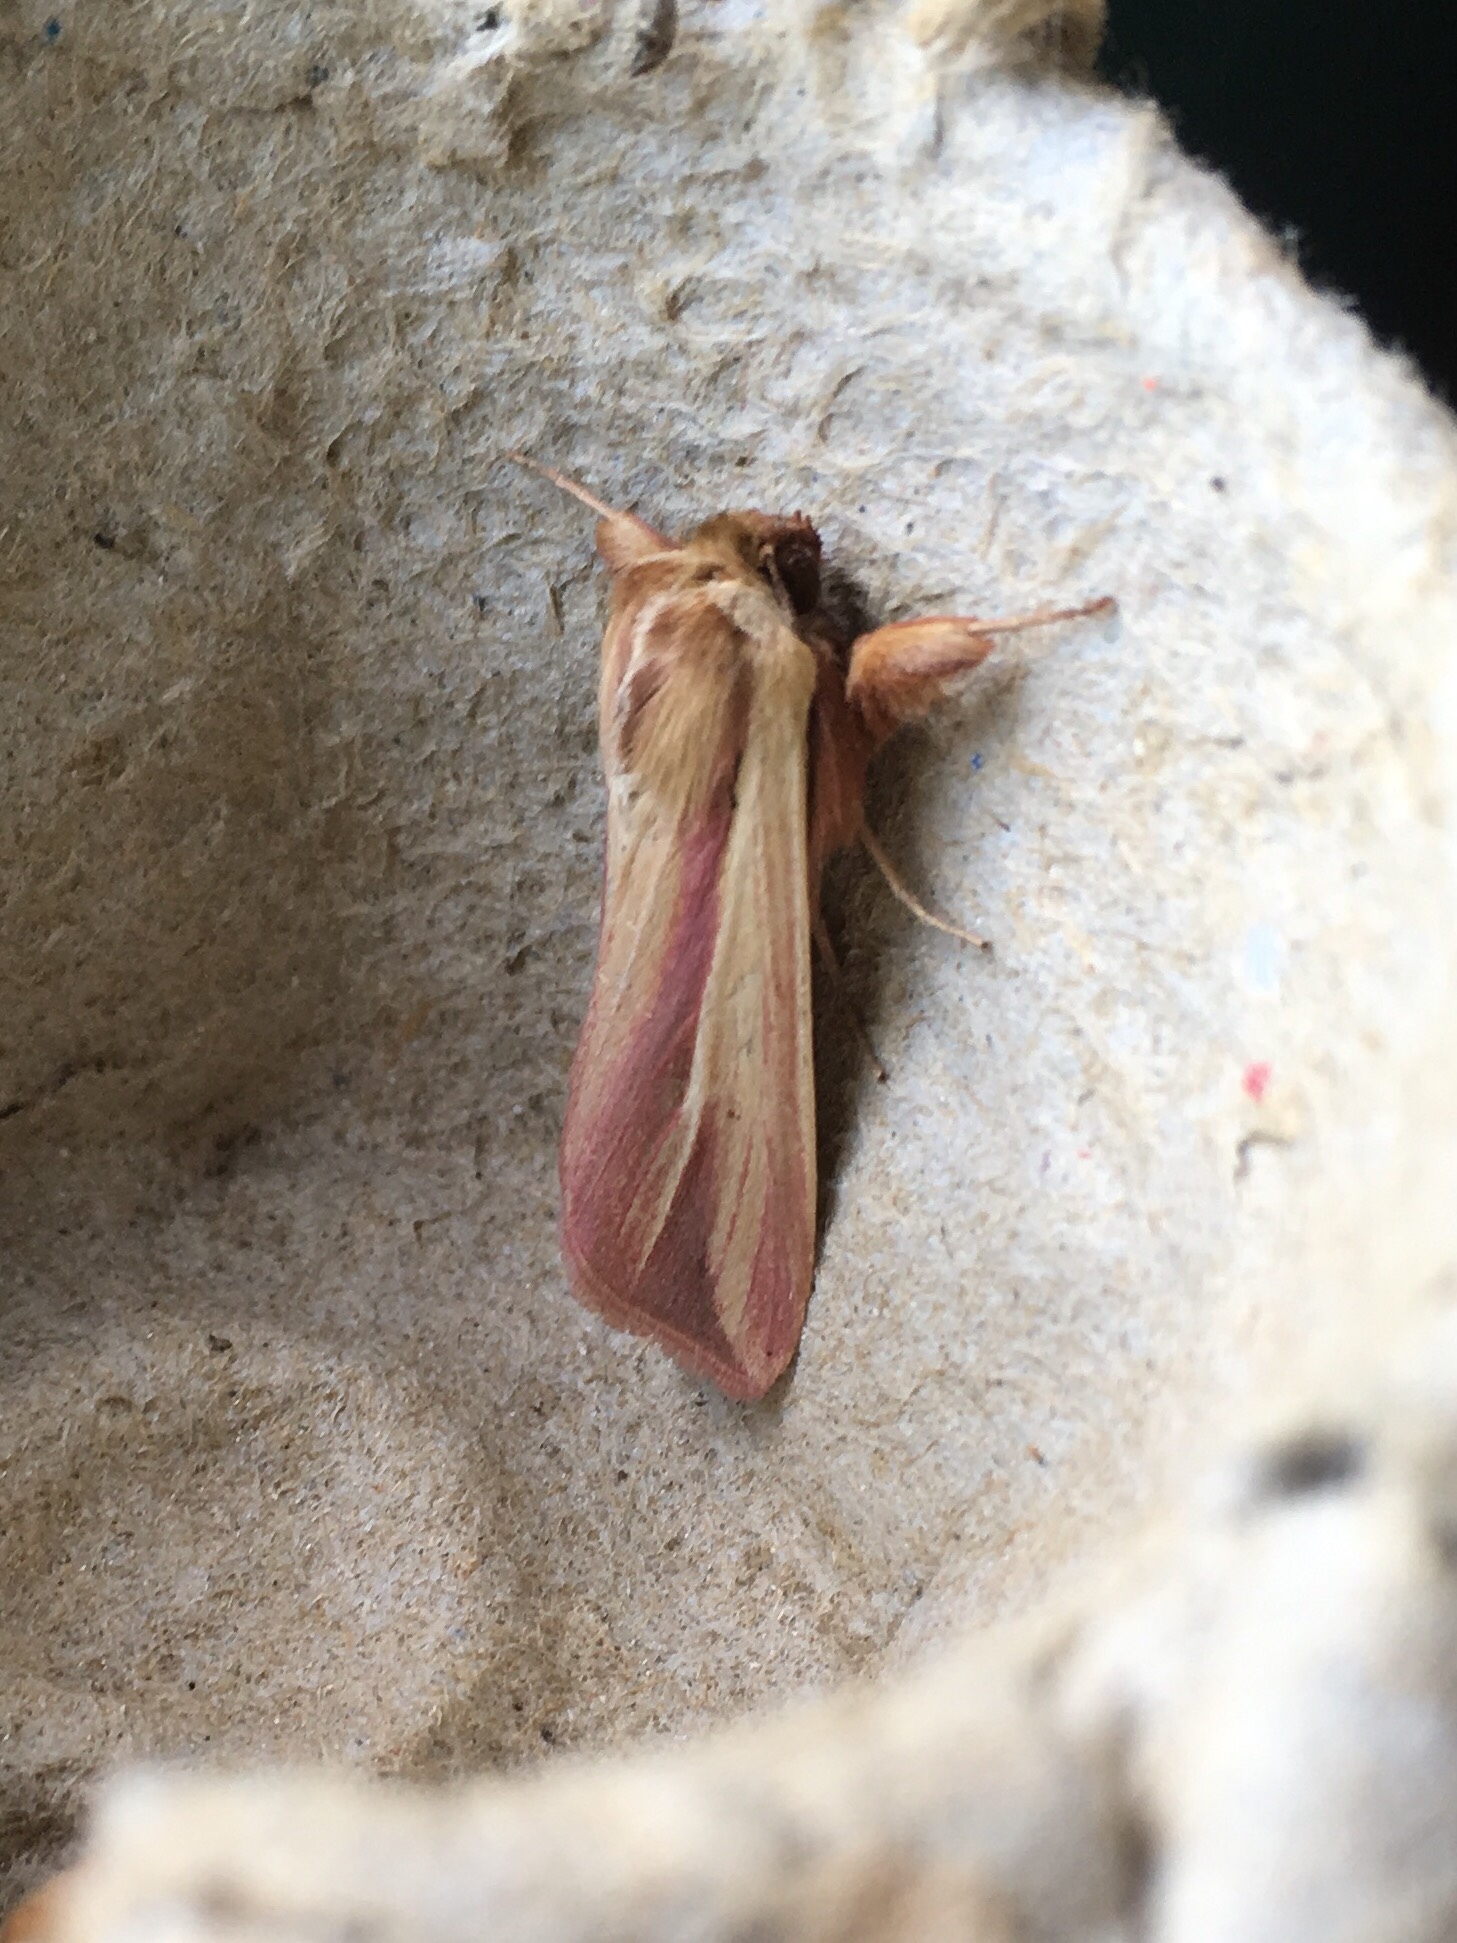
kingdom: Animalia
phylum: Arthropoda
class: Insecta
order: Lepidoptera
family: Noctuidae
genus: Dargida
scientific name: Dargida rubripennis
